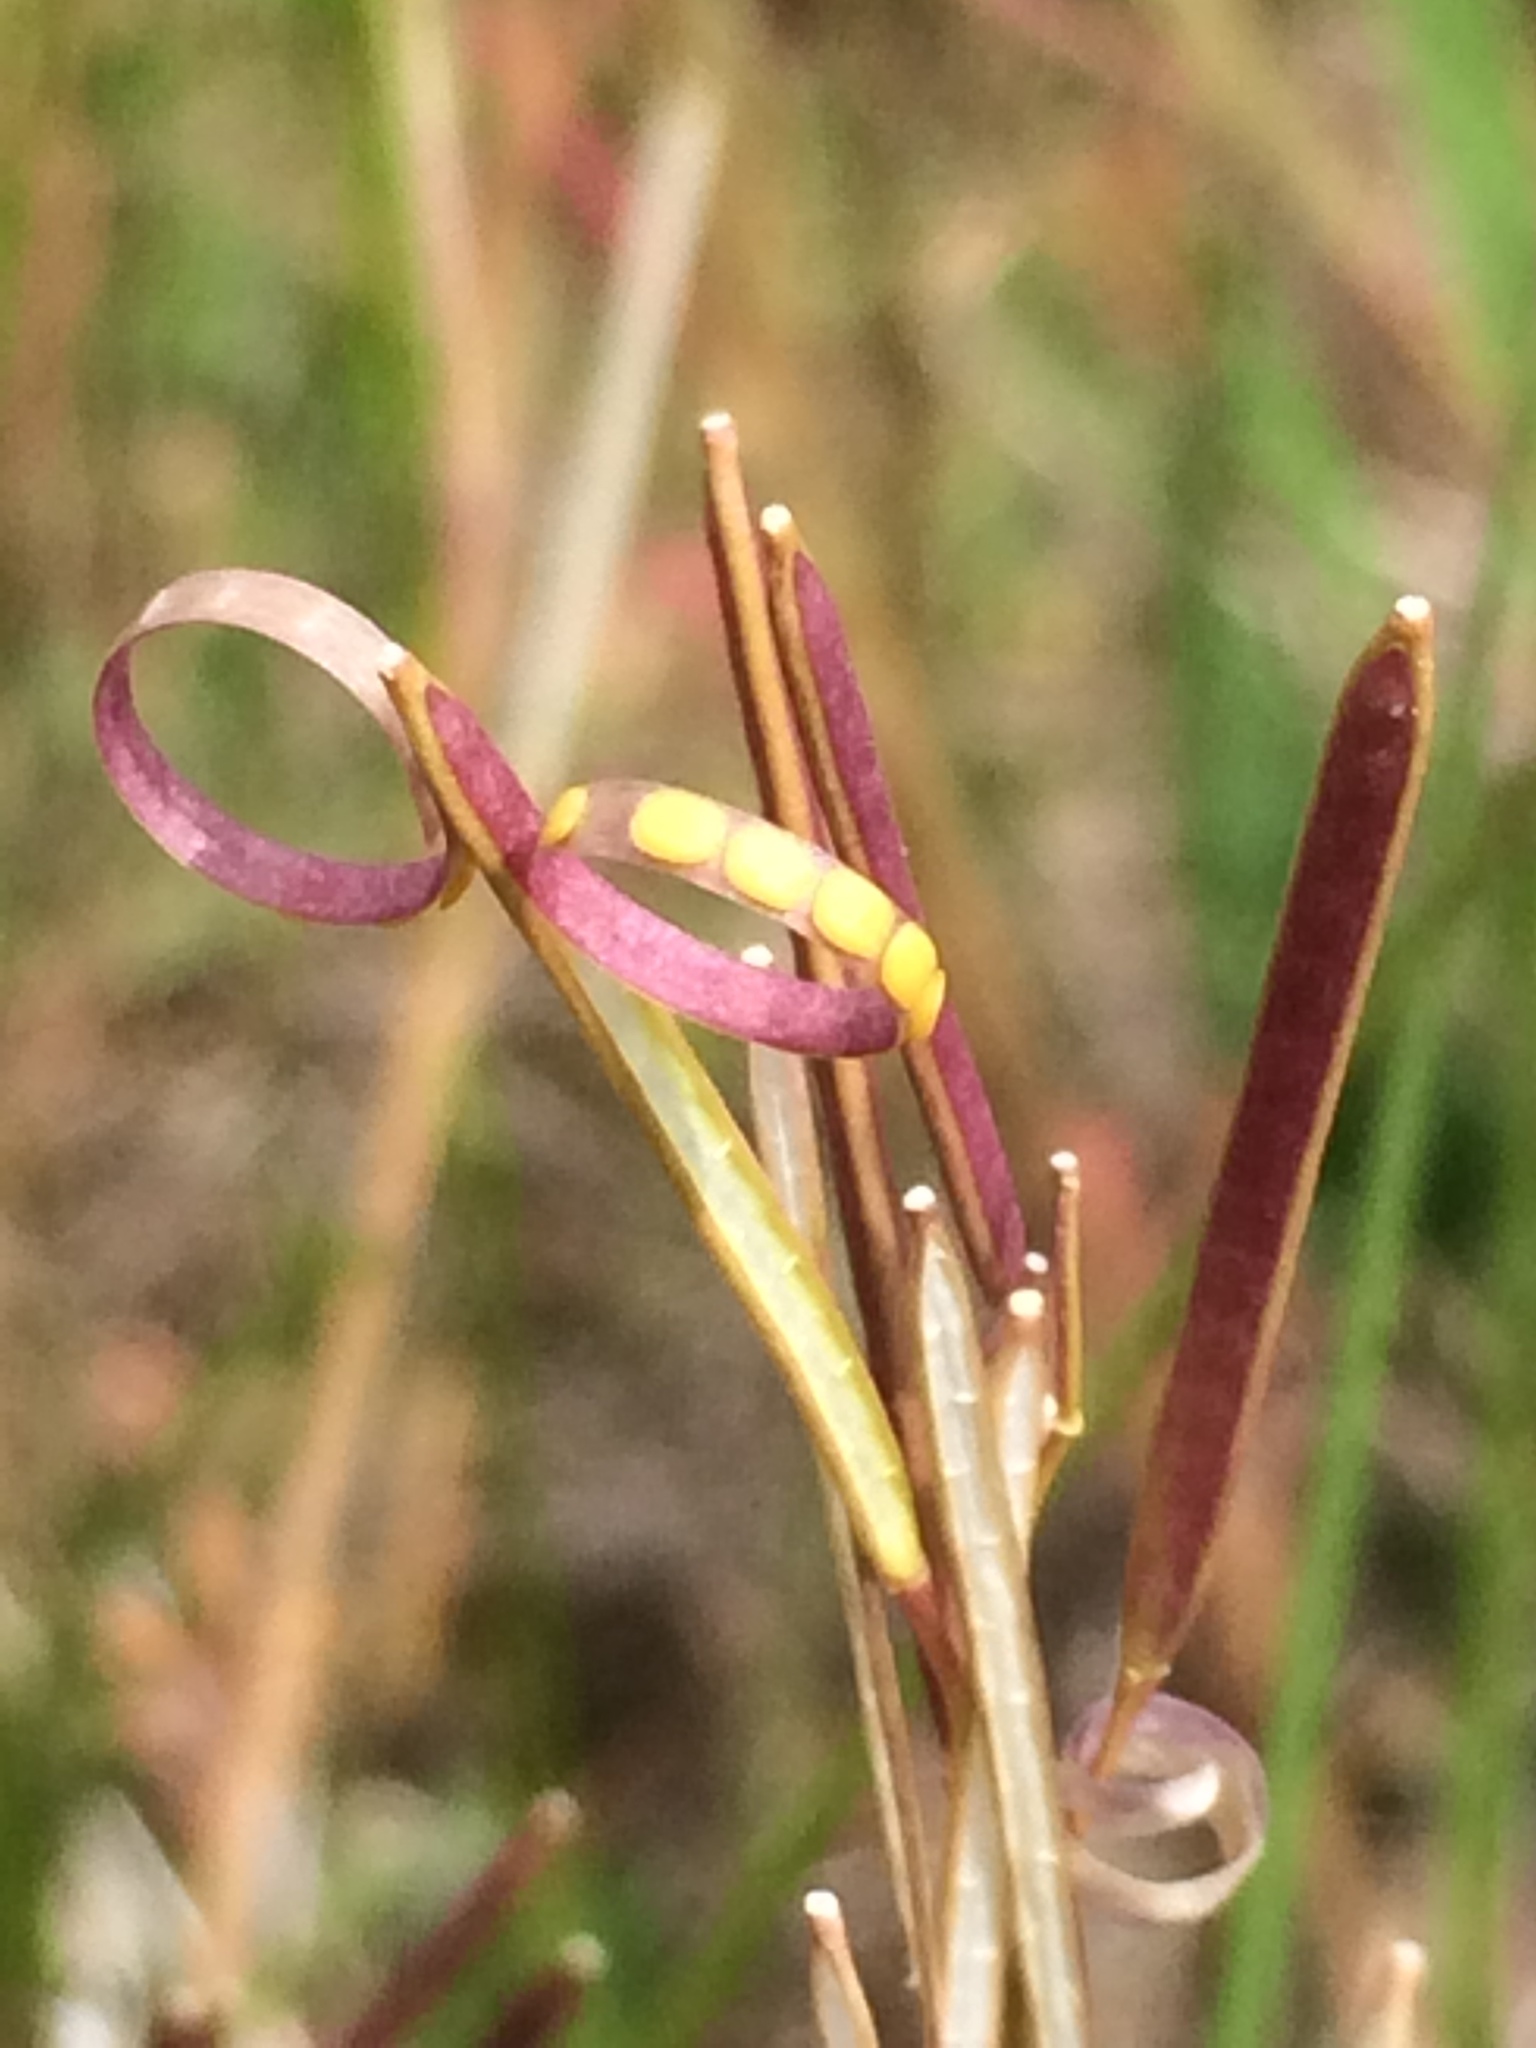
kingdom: Plantae
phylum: Tracheophyta
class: Magnoliopsida
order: Brassicales
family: Brassicaceae
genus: Cardamine
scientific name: Cardamine hirsuta
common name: Hairy bittercress
